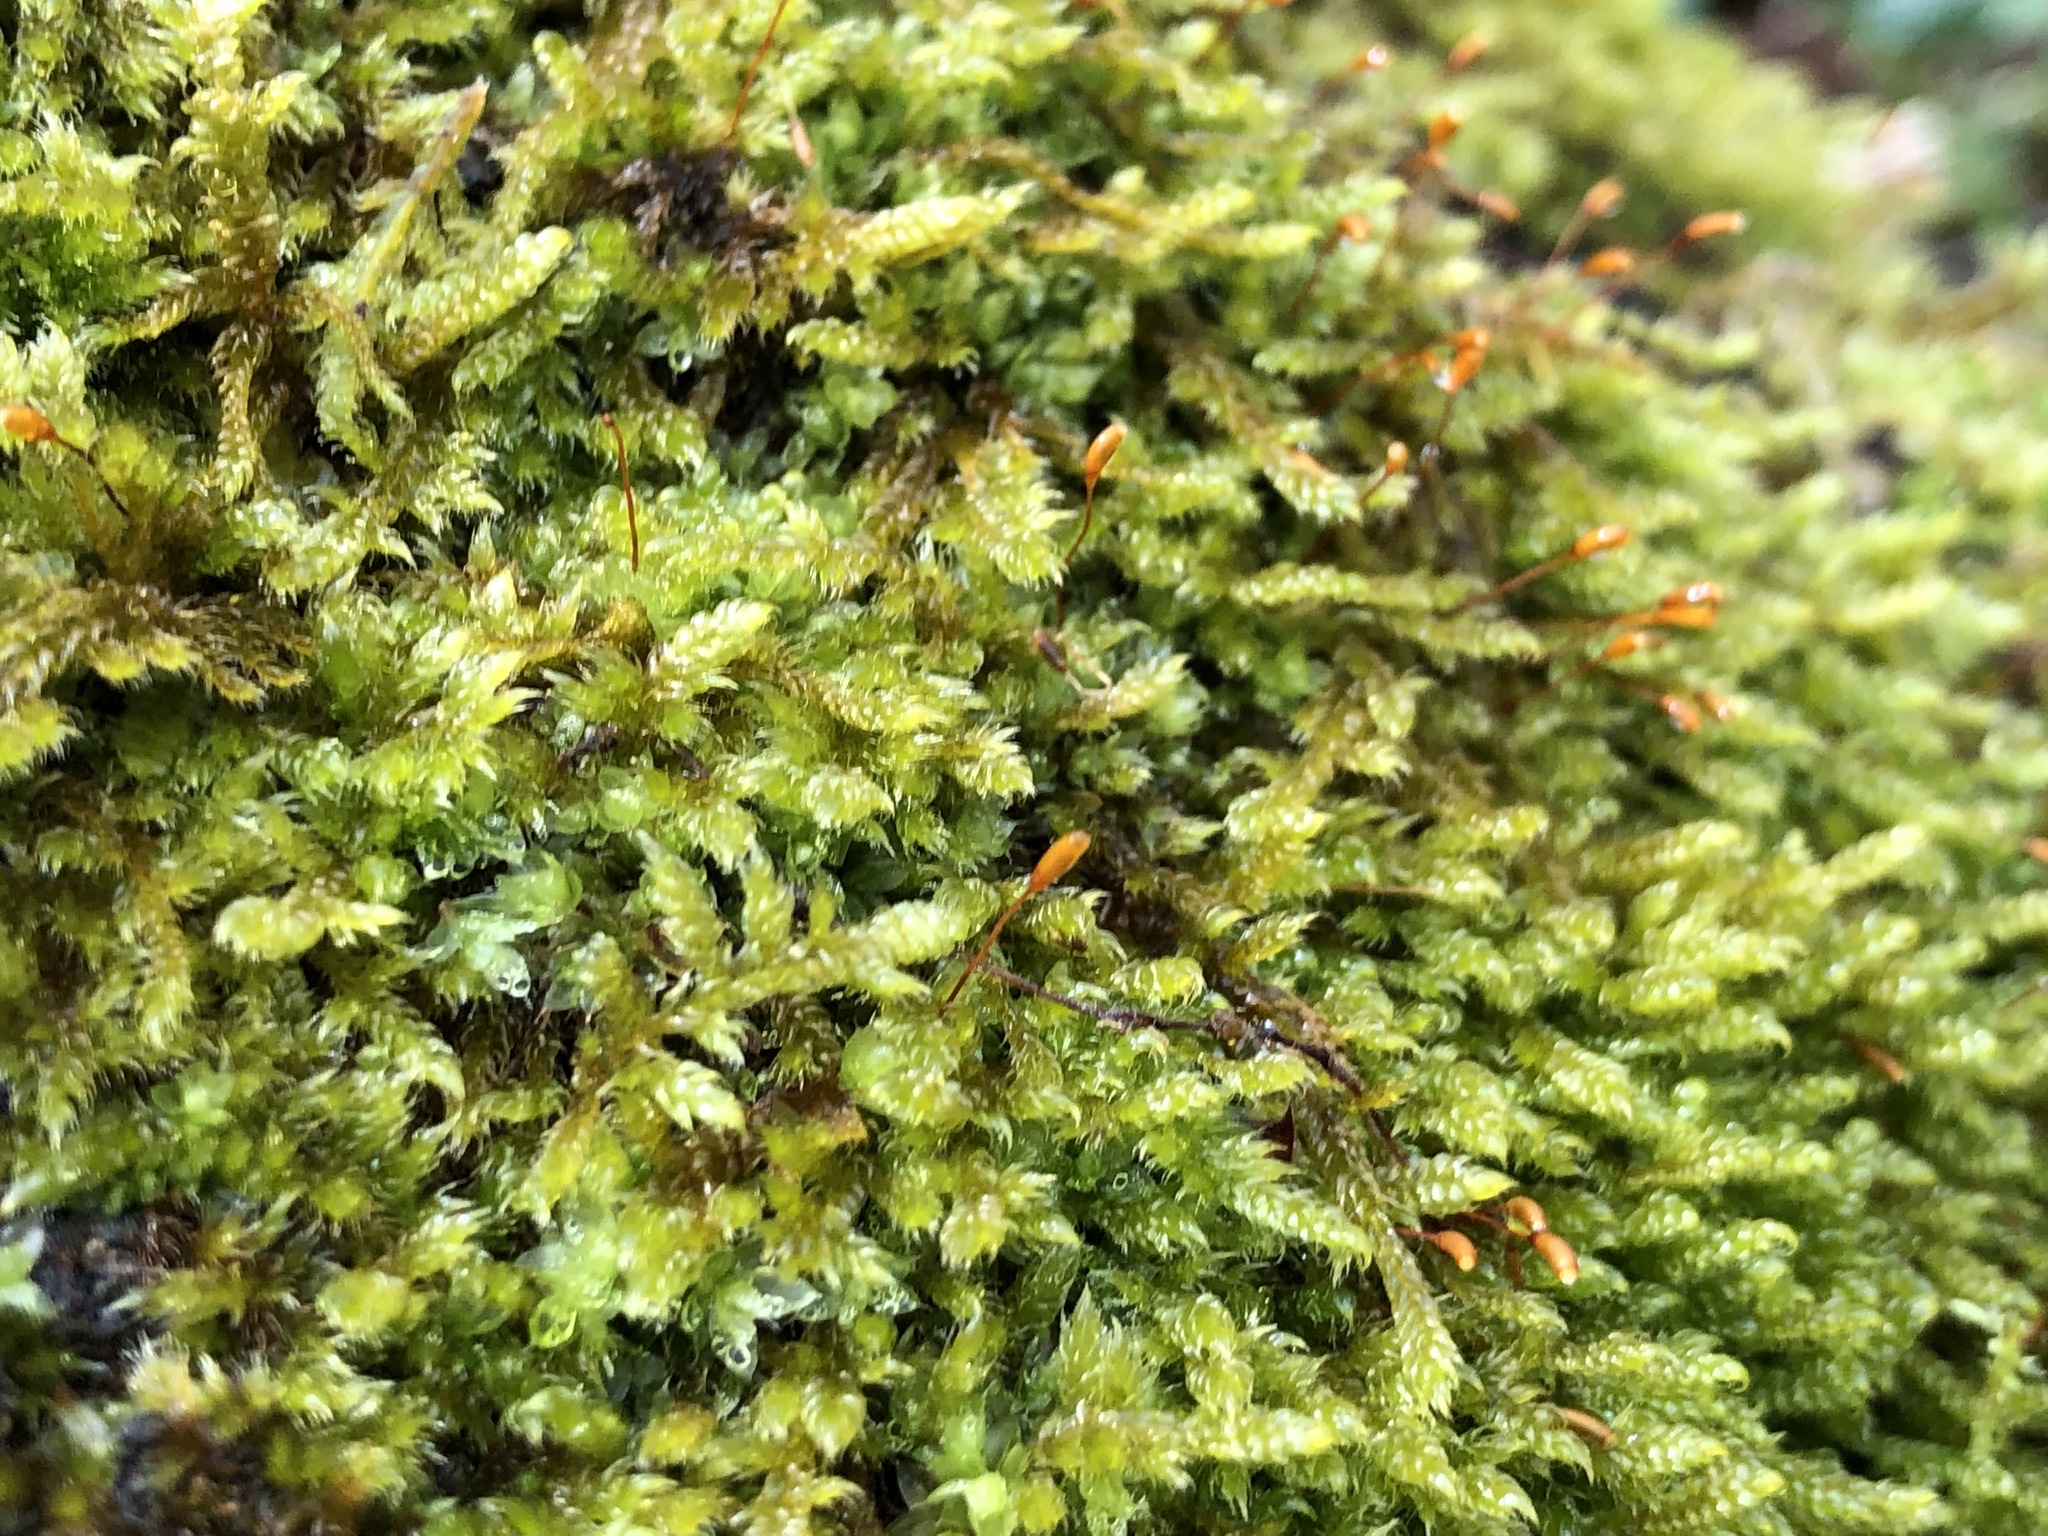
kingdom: Plantae
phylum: Bryophyta
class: Bryopsida
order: Hypnales
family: Hypnaceae
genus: Hypnum
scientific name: Hypnum cupressiforme
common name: Cypress-leaved plait-moss
